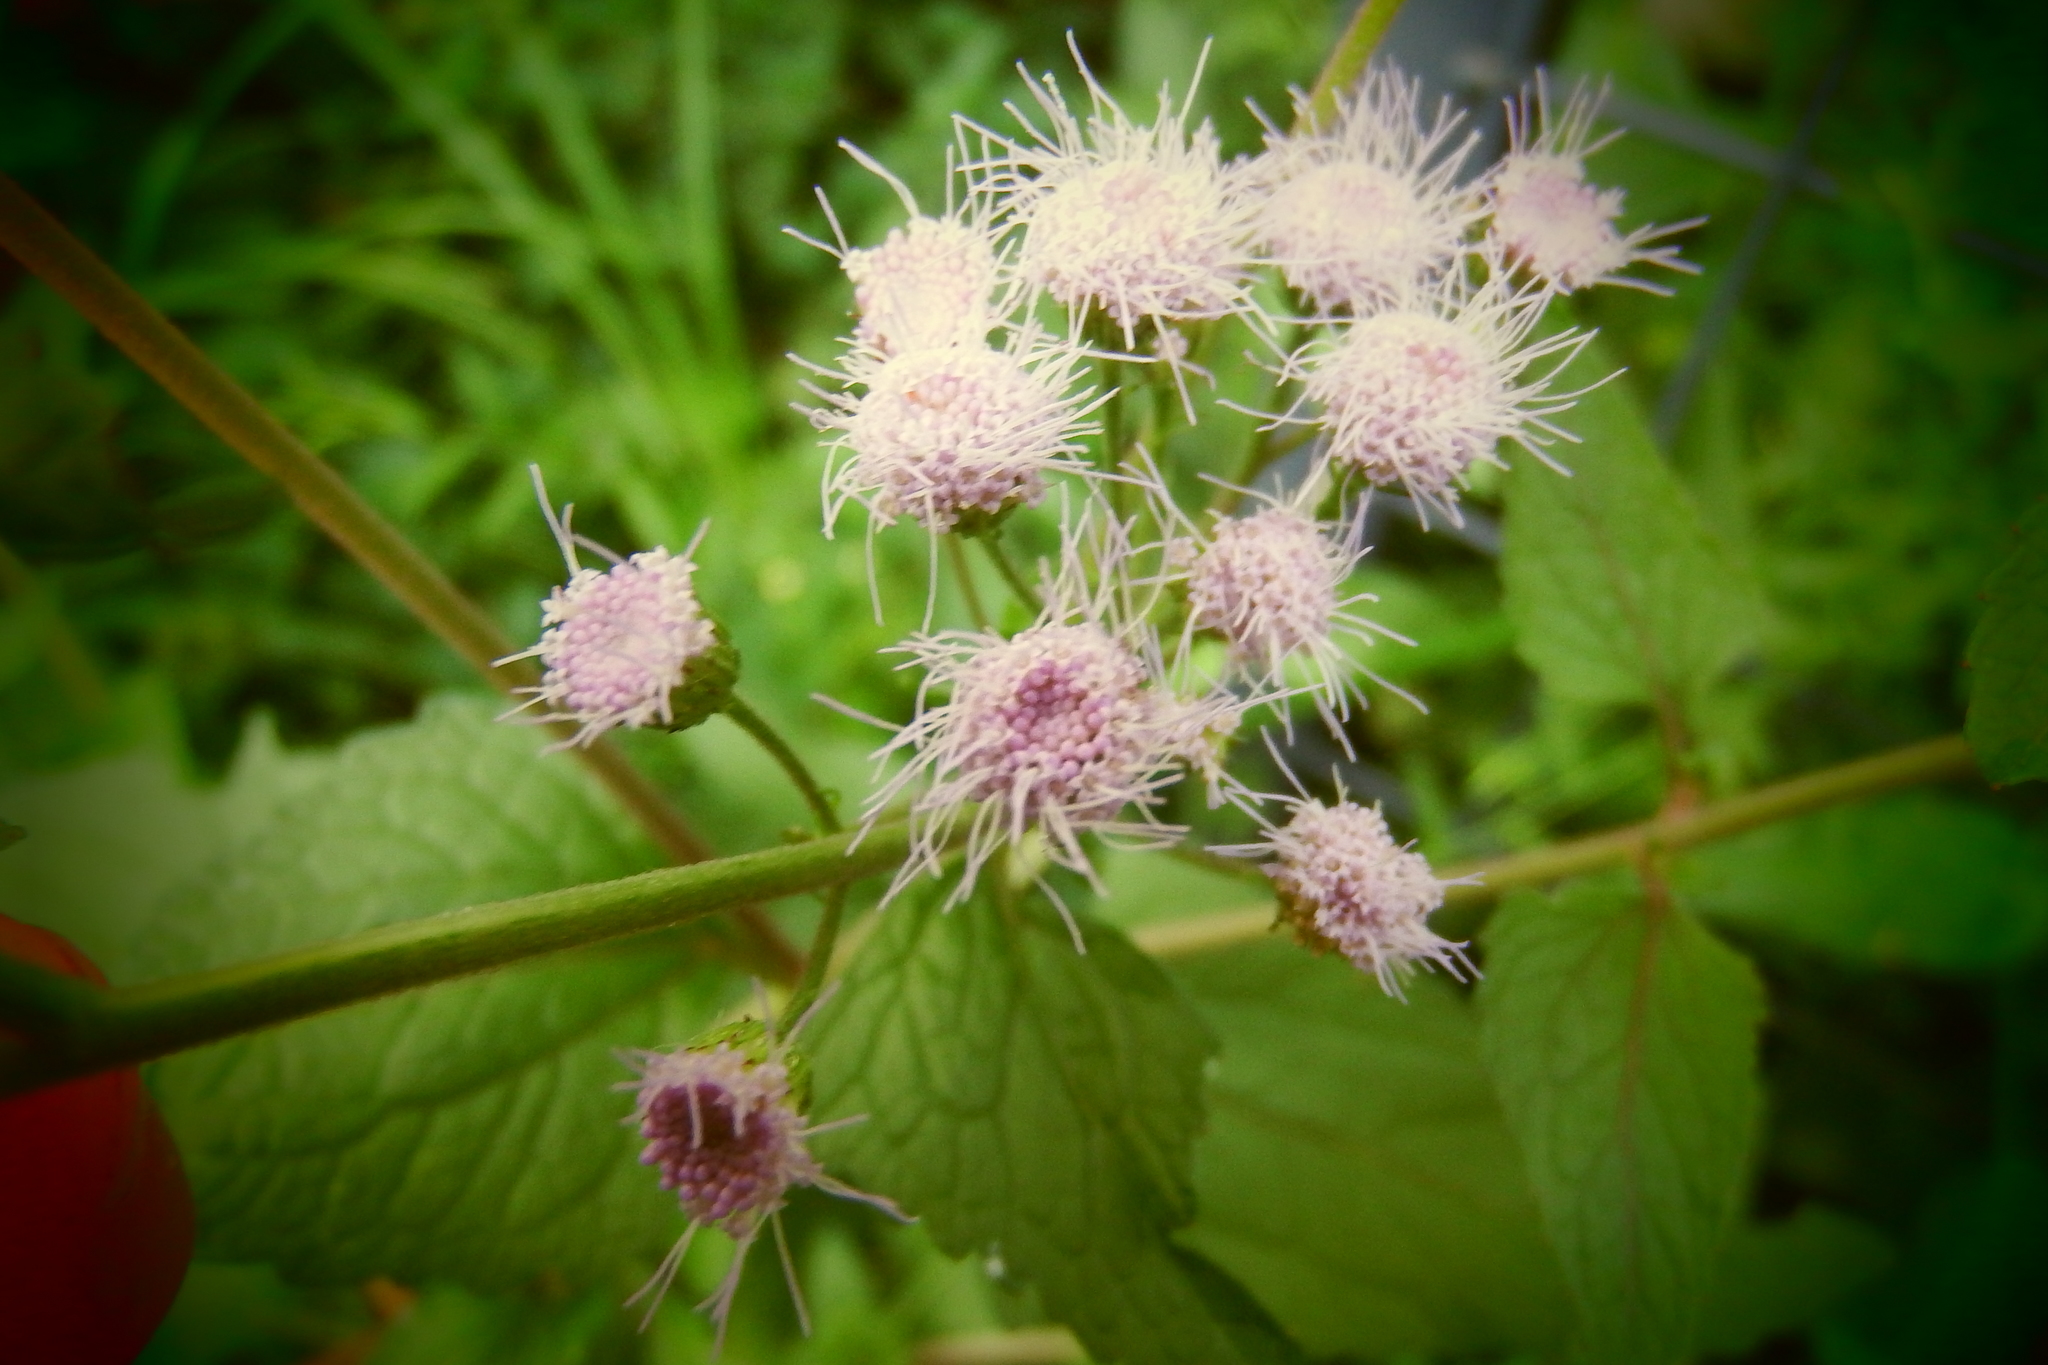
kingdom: Plantae
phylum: Tracheophyta
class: Magnoliopsida
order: Asterales
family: Asteraceae
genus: Conoclinium
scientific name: Conoclinium coelestinum
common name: Blue mistflower
